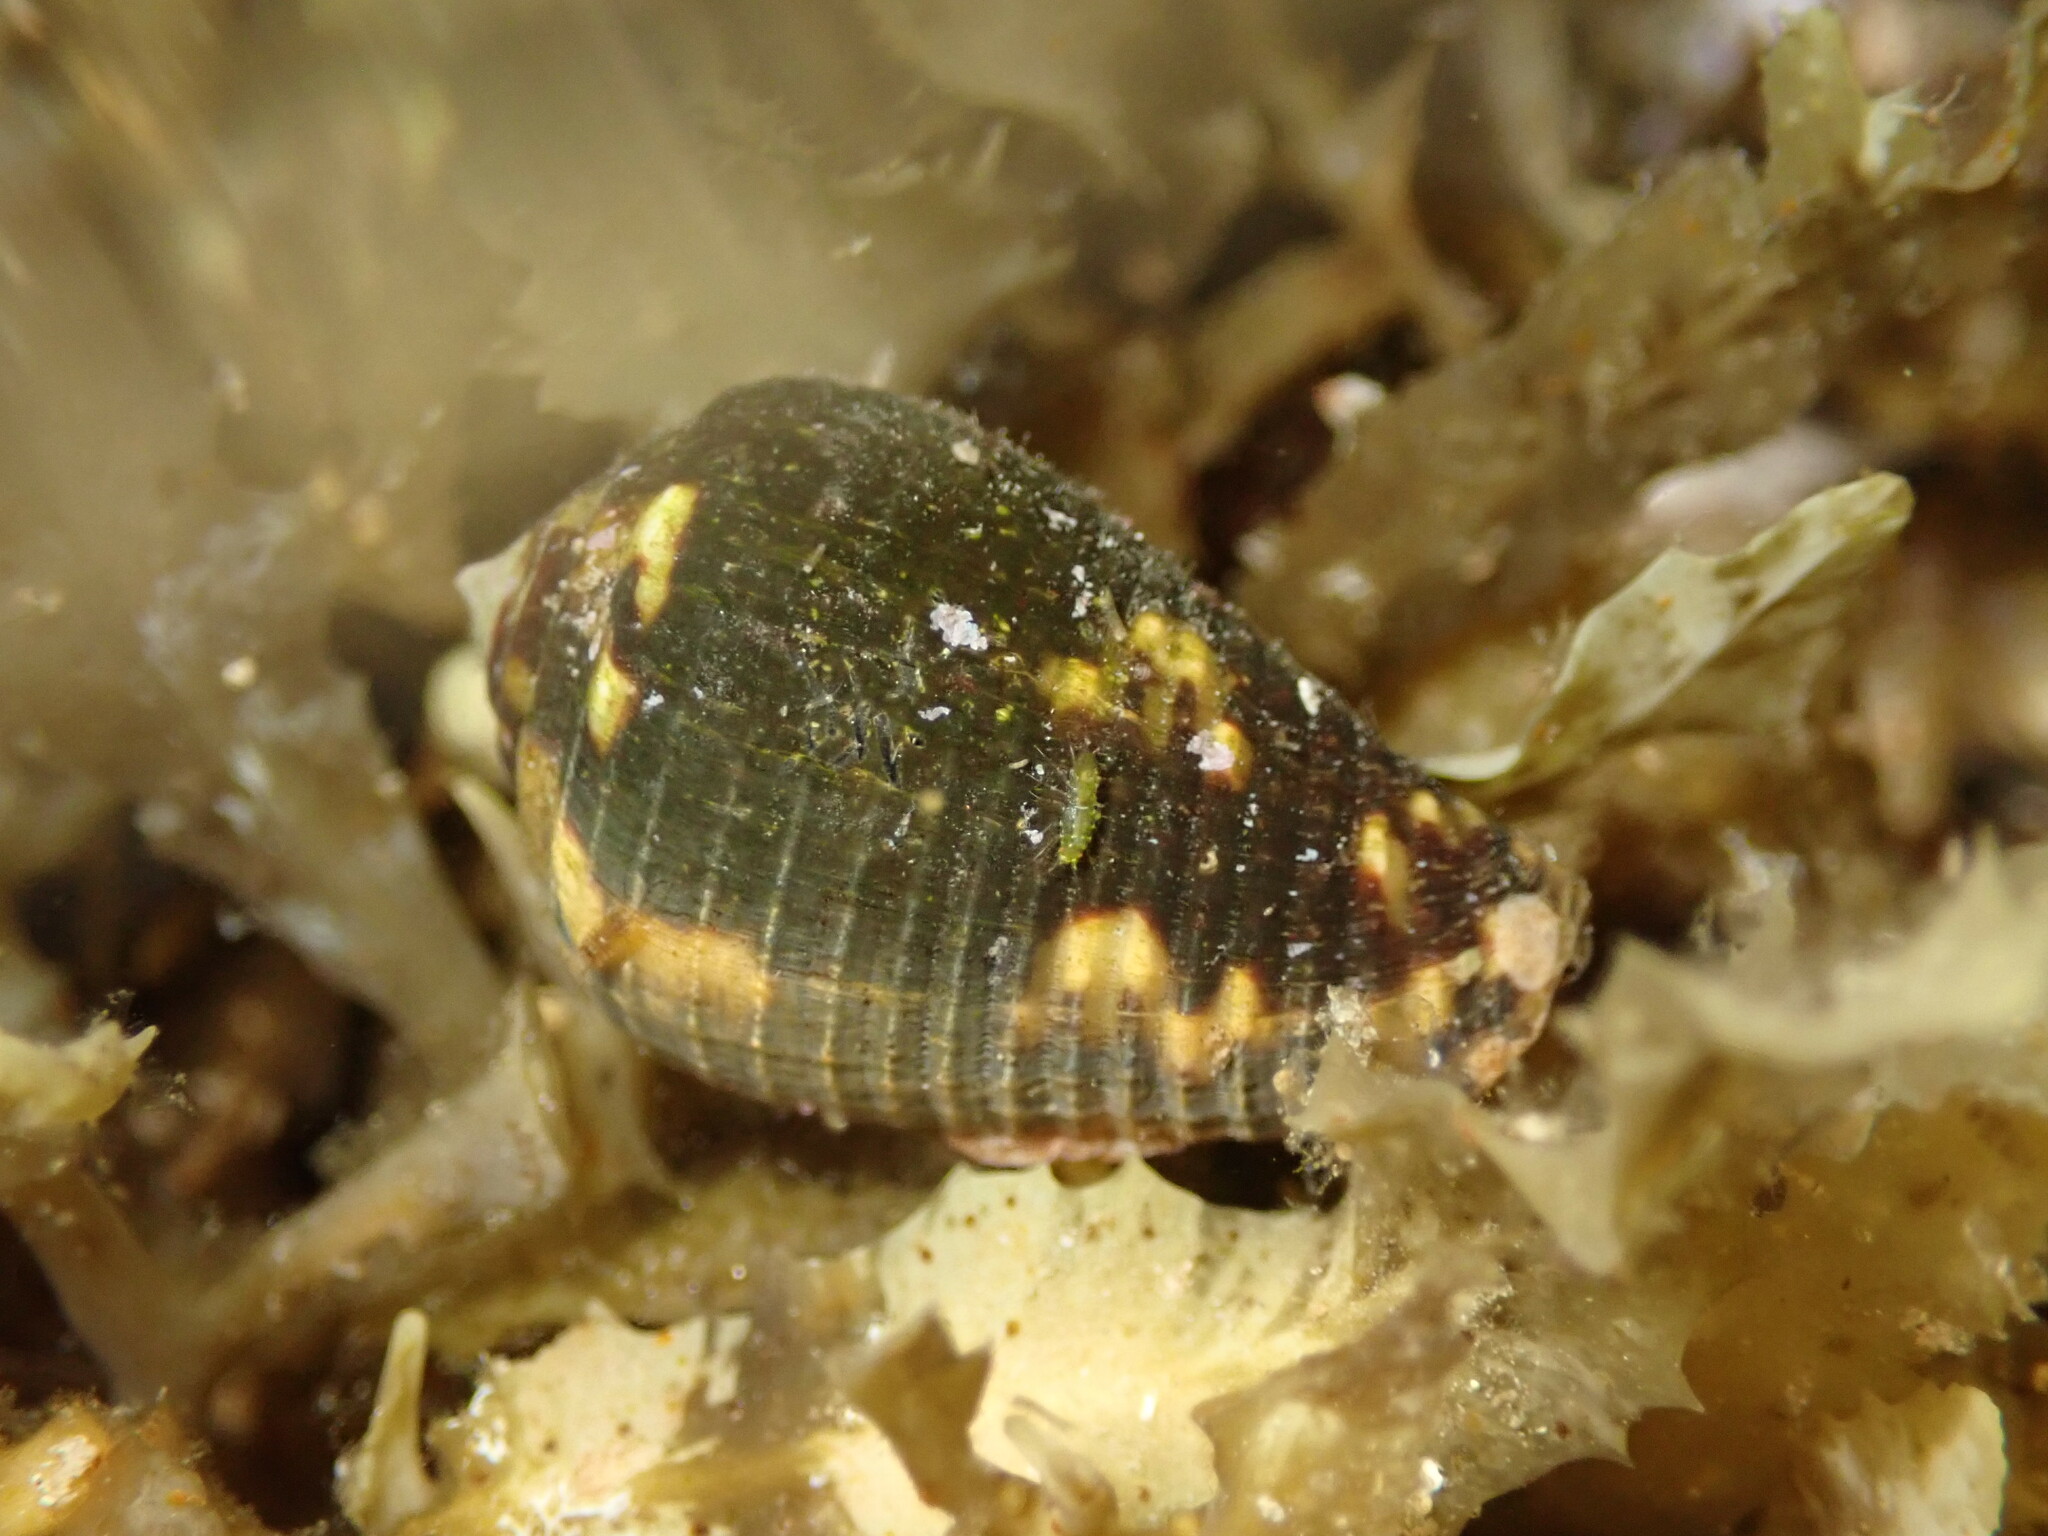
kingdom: Animalia
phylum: Mollusca
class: Gastropoda
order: Neogastropoda
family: Conidae
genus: Conus
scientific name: Conus catus
